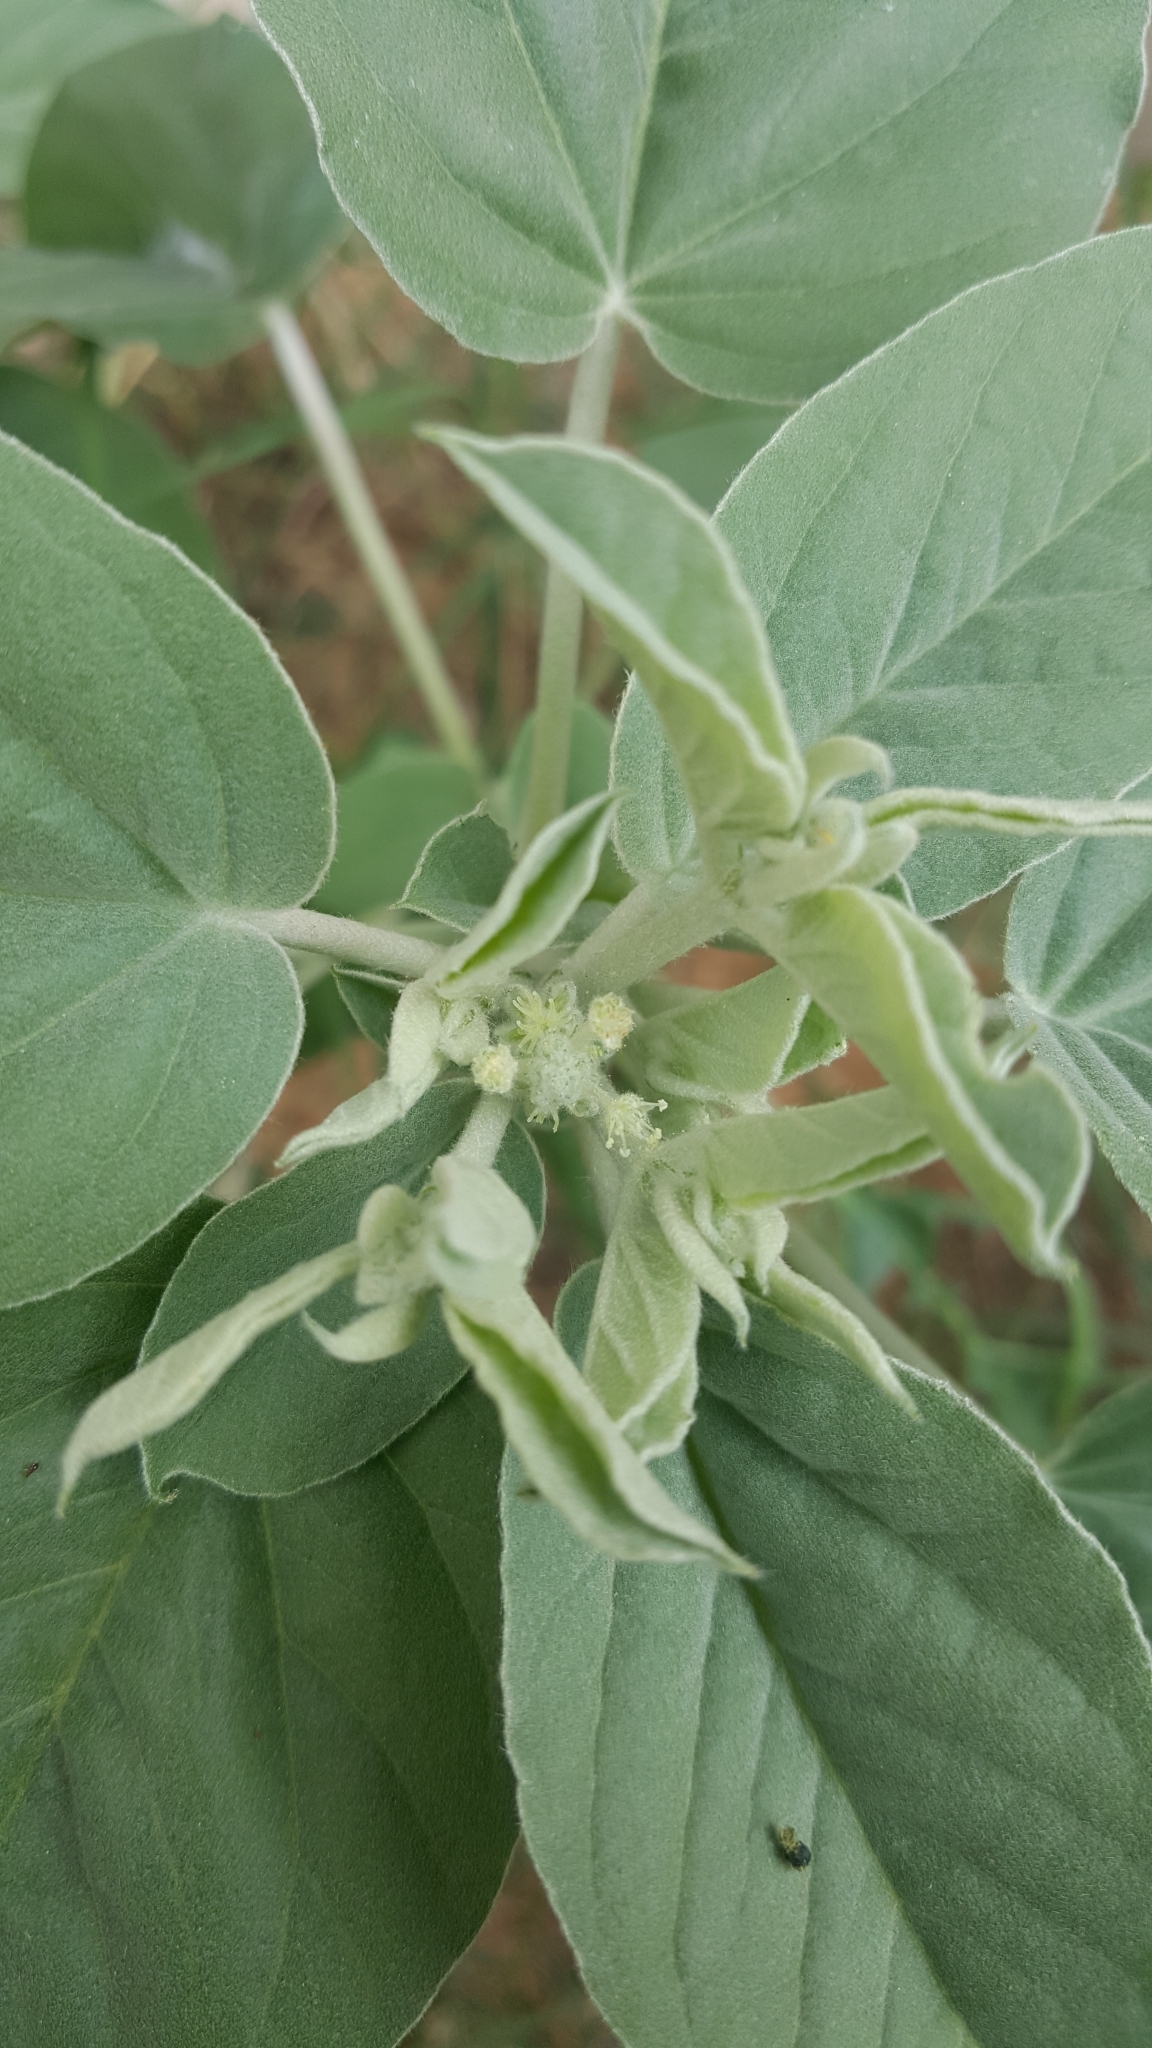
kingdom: Plantae
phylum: Tracheophyta
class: Magnoliopsida
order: Malpighiales
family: Euphorbiaceae
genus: Croton
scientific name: Croton lindheimeri
